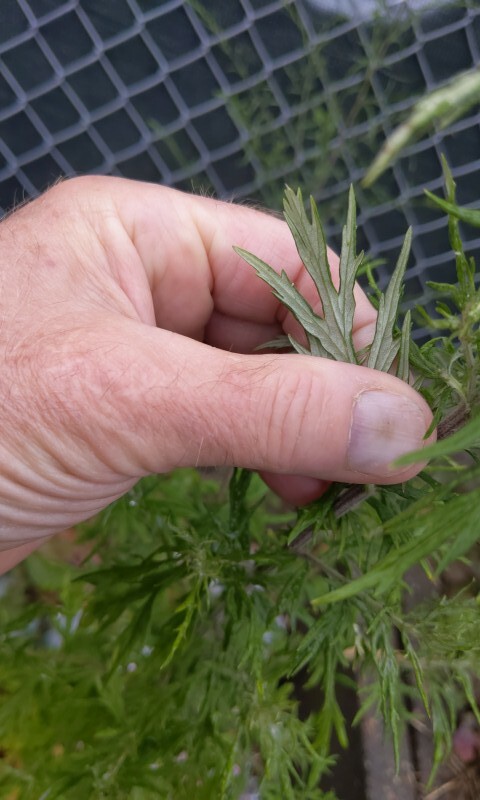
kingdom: Plantae
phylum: Tracheophyta
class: Magnoliopsida
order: Asterales
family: Asteraceae
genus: Artemisia
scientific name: Artemisia vulgaris
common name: Mugwort
